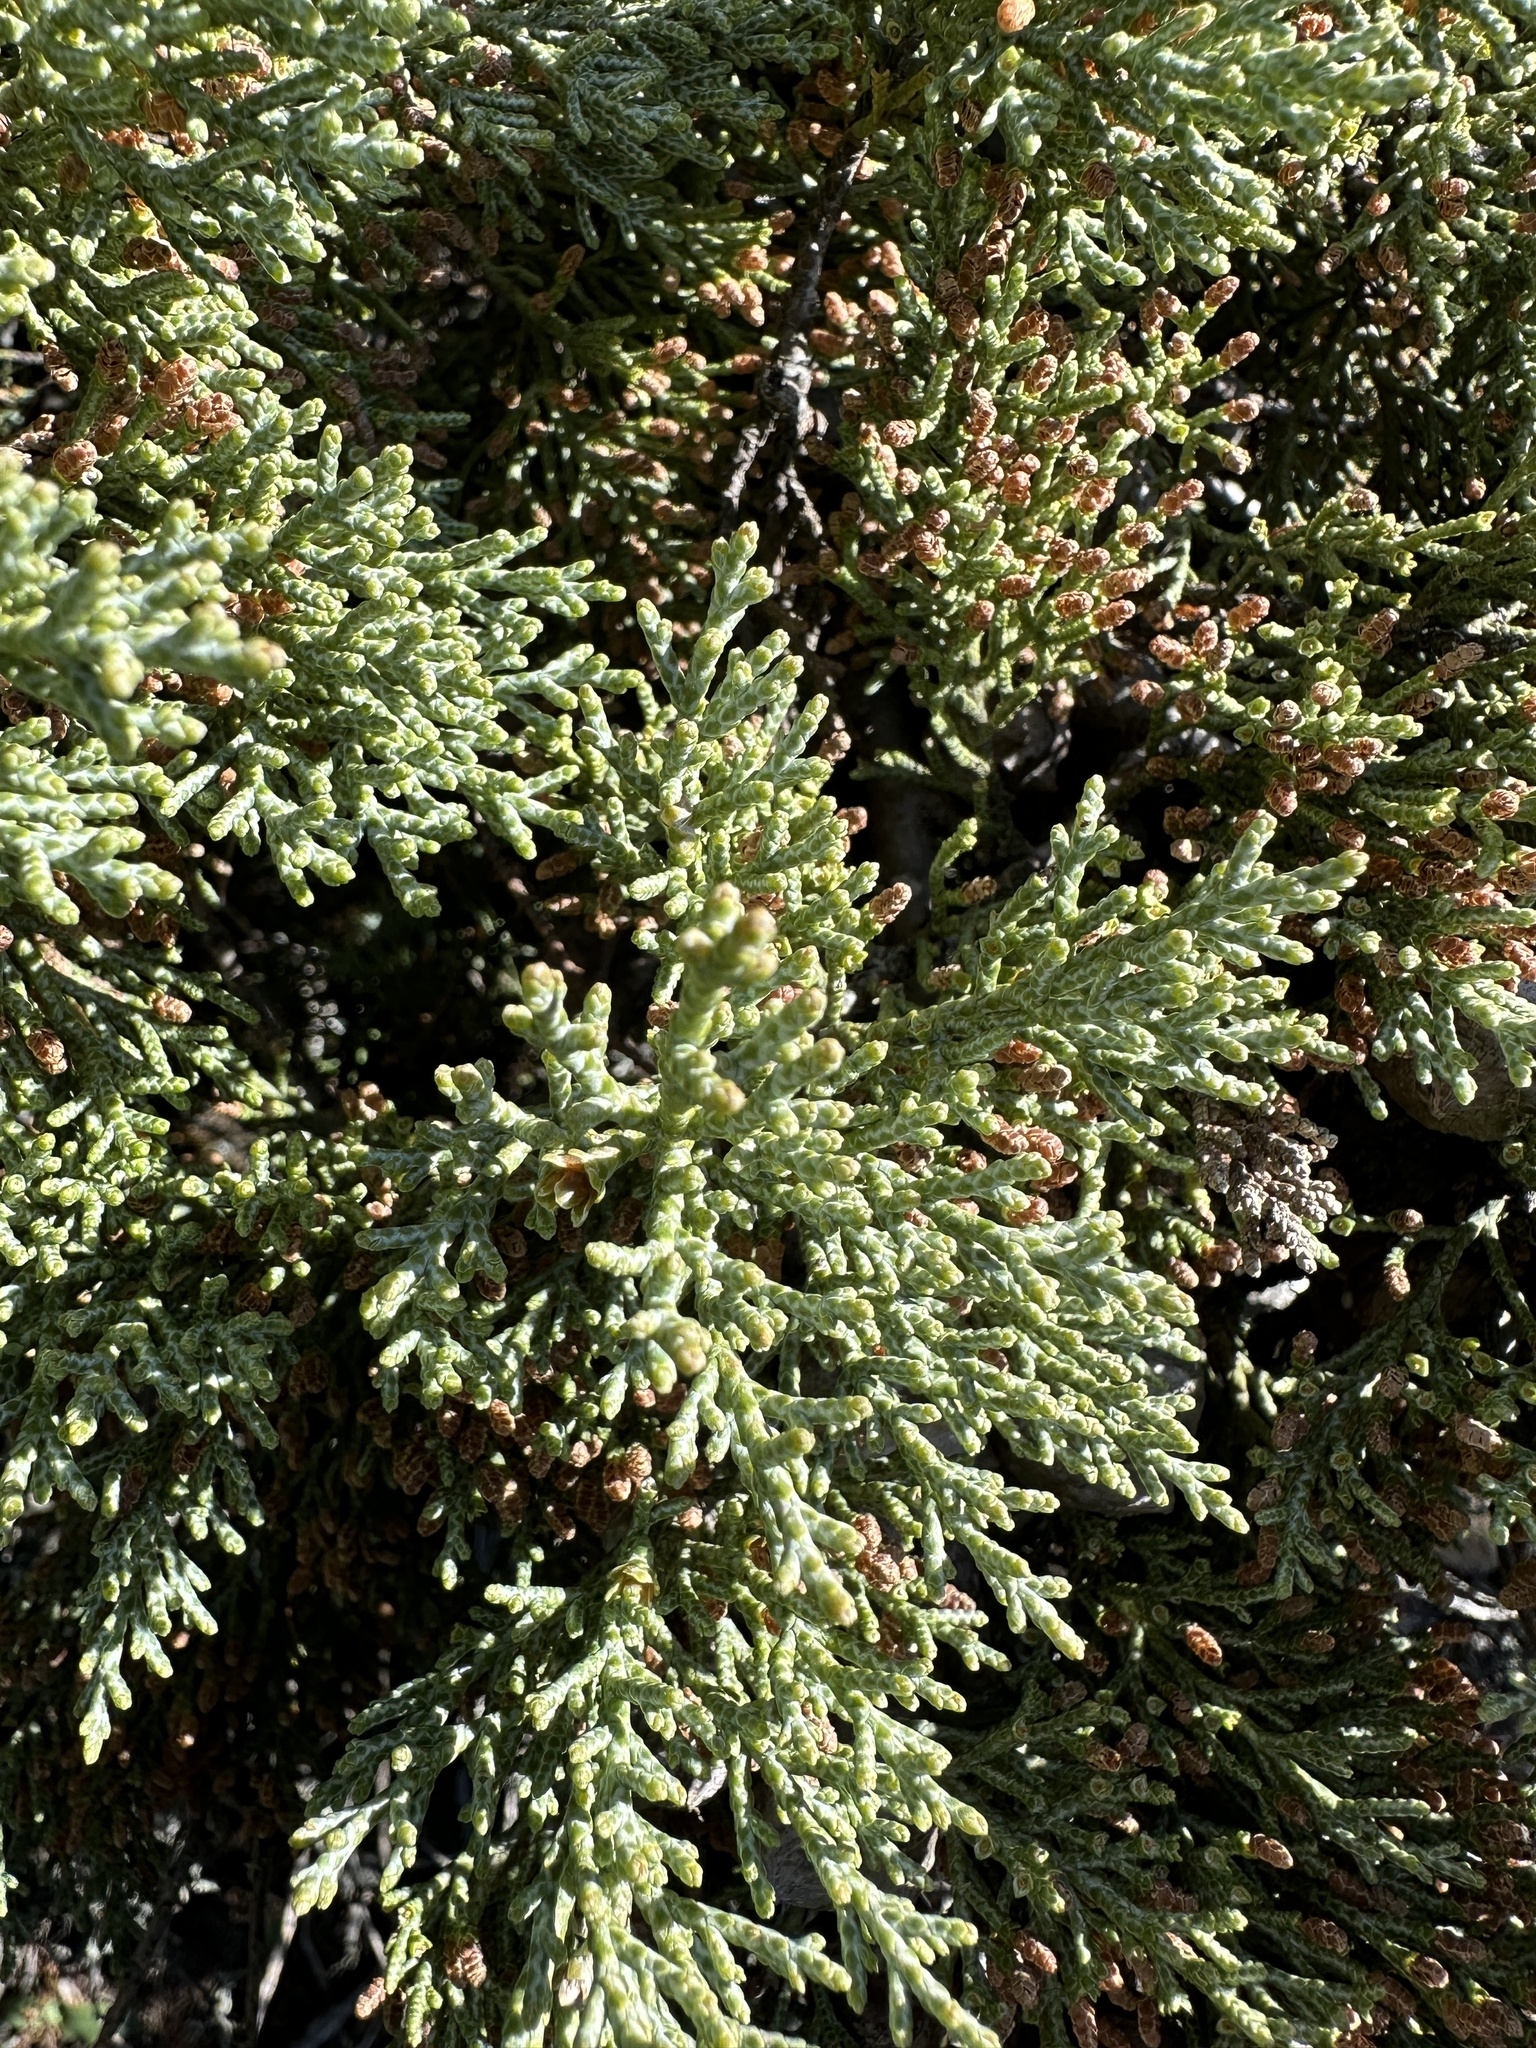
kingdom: Plantae
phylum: Tracheophyta
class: Pinopsida
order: Pinales
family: Cupressaceae
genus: Cupressus
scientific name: Cupressus sargentii
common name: Sargent cypress
